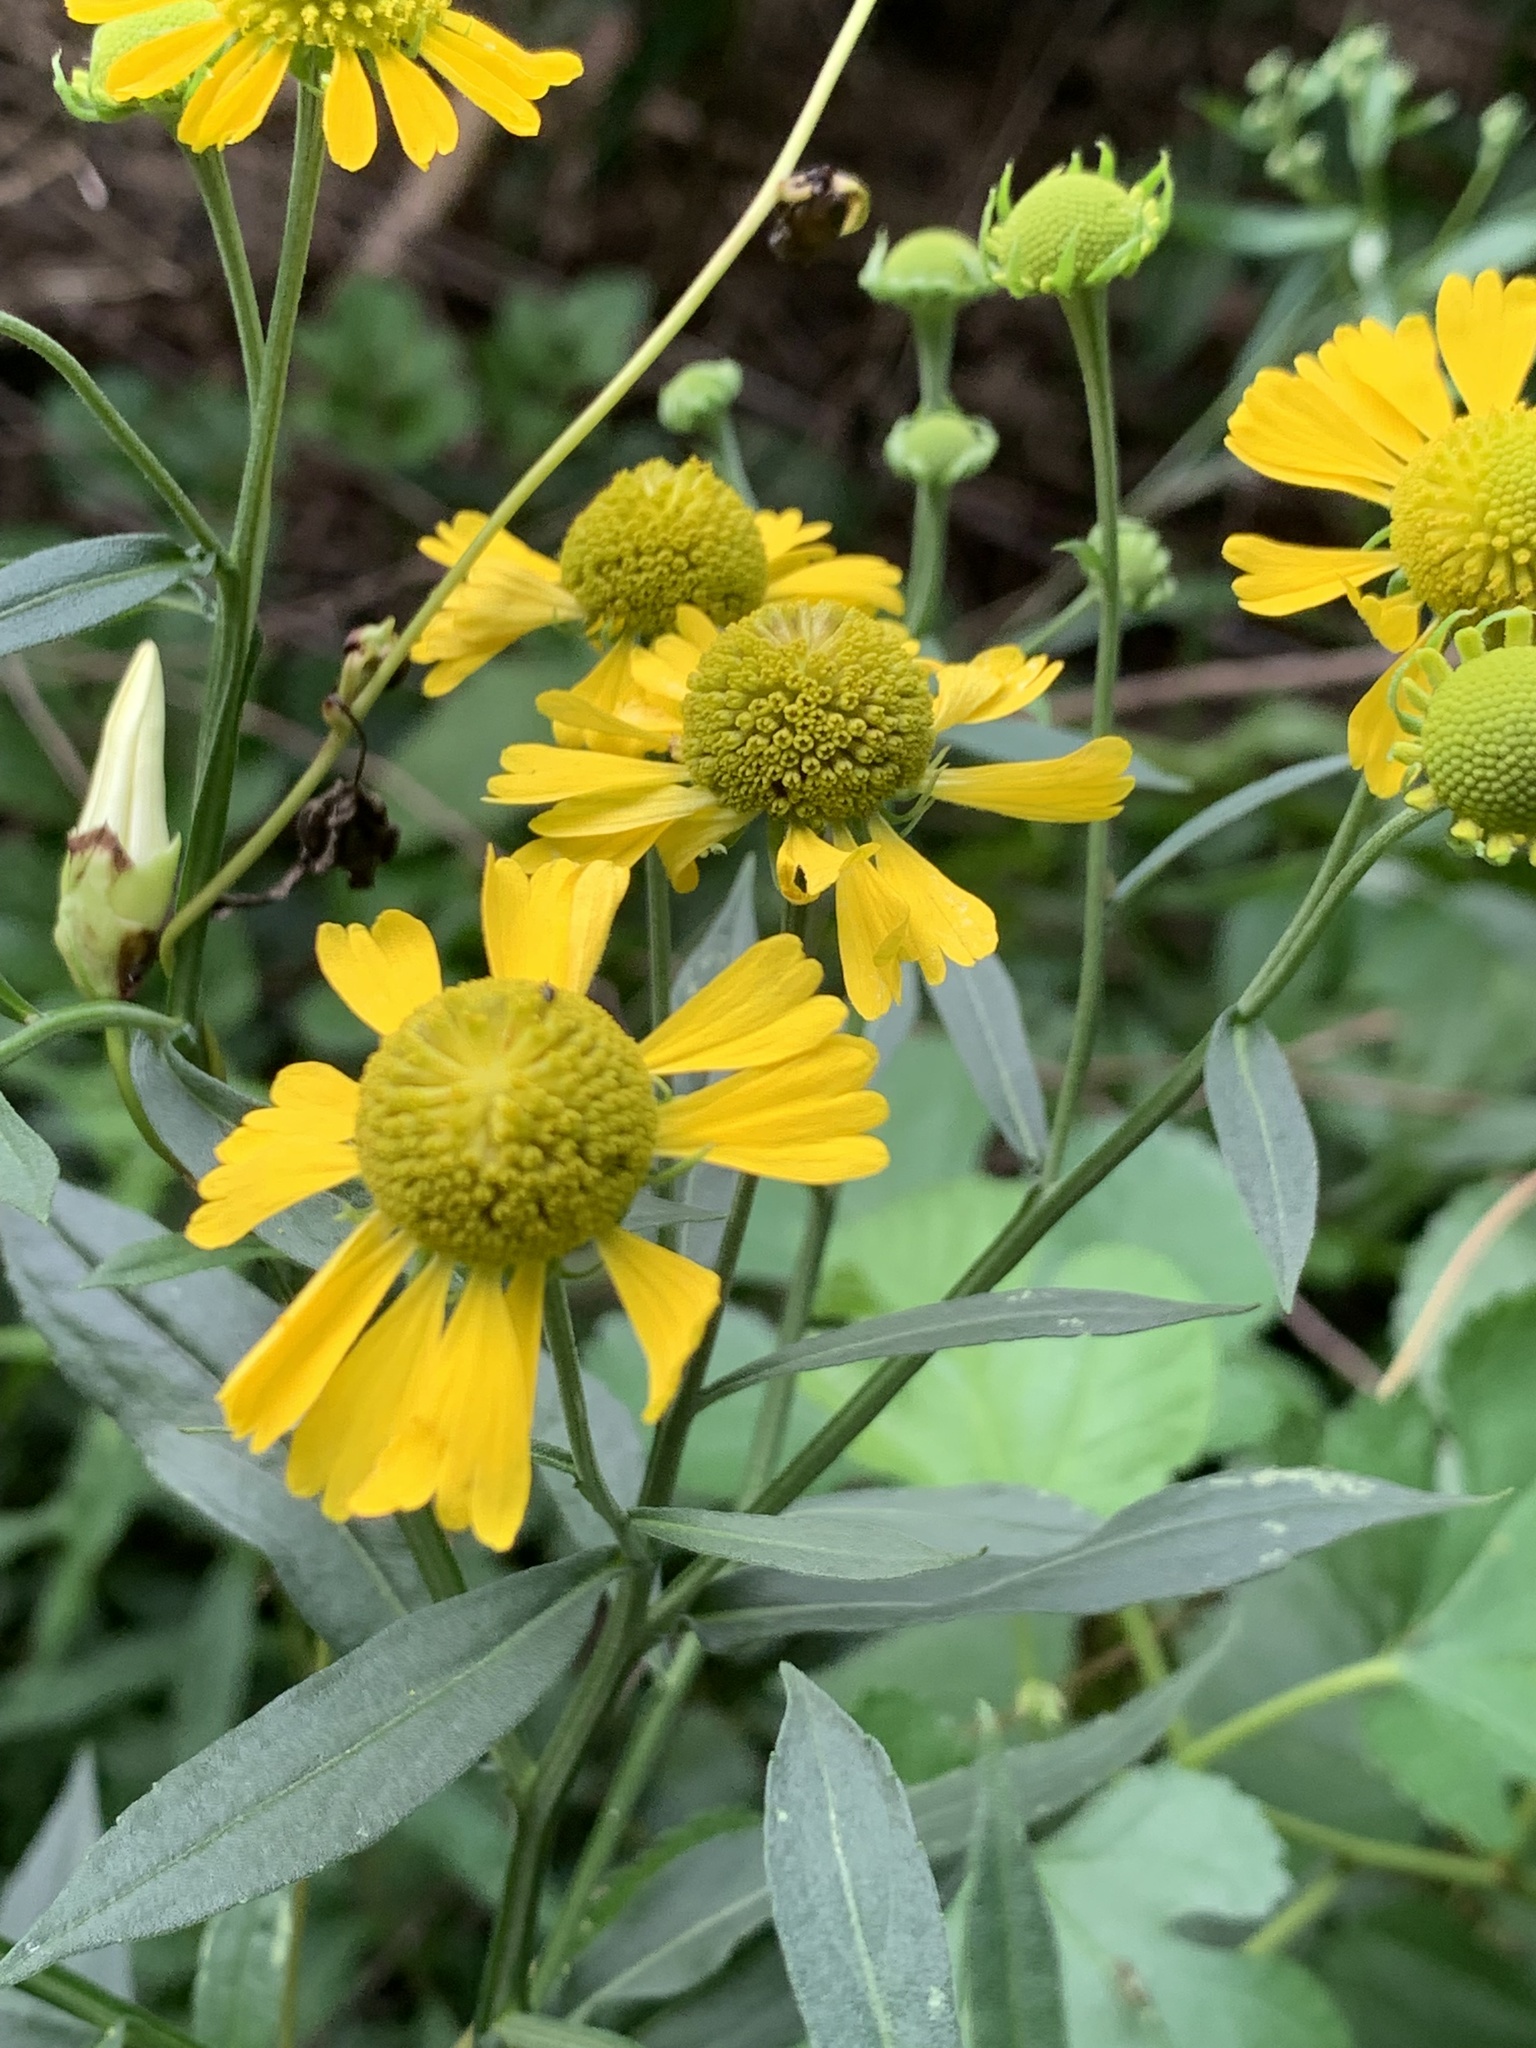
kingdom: Plantae
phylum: Tracheophyta
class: Magnoliopsida
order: Asterales
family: Asteraceae
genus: Helenium
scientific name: Helenium autumnale
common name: Sneezeweed
